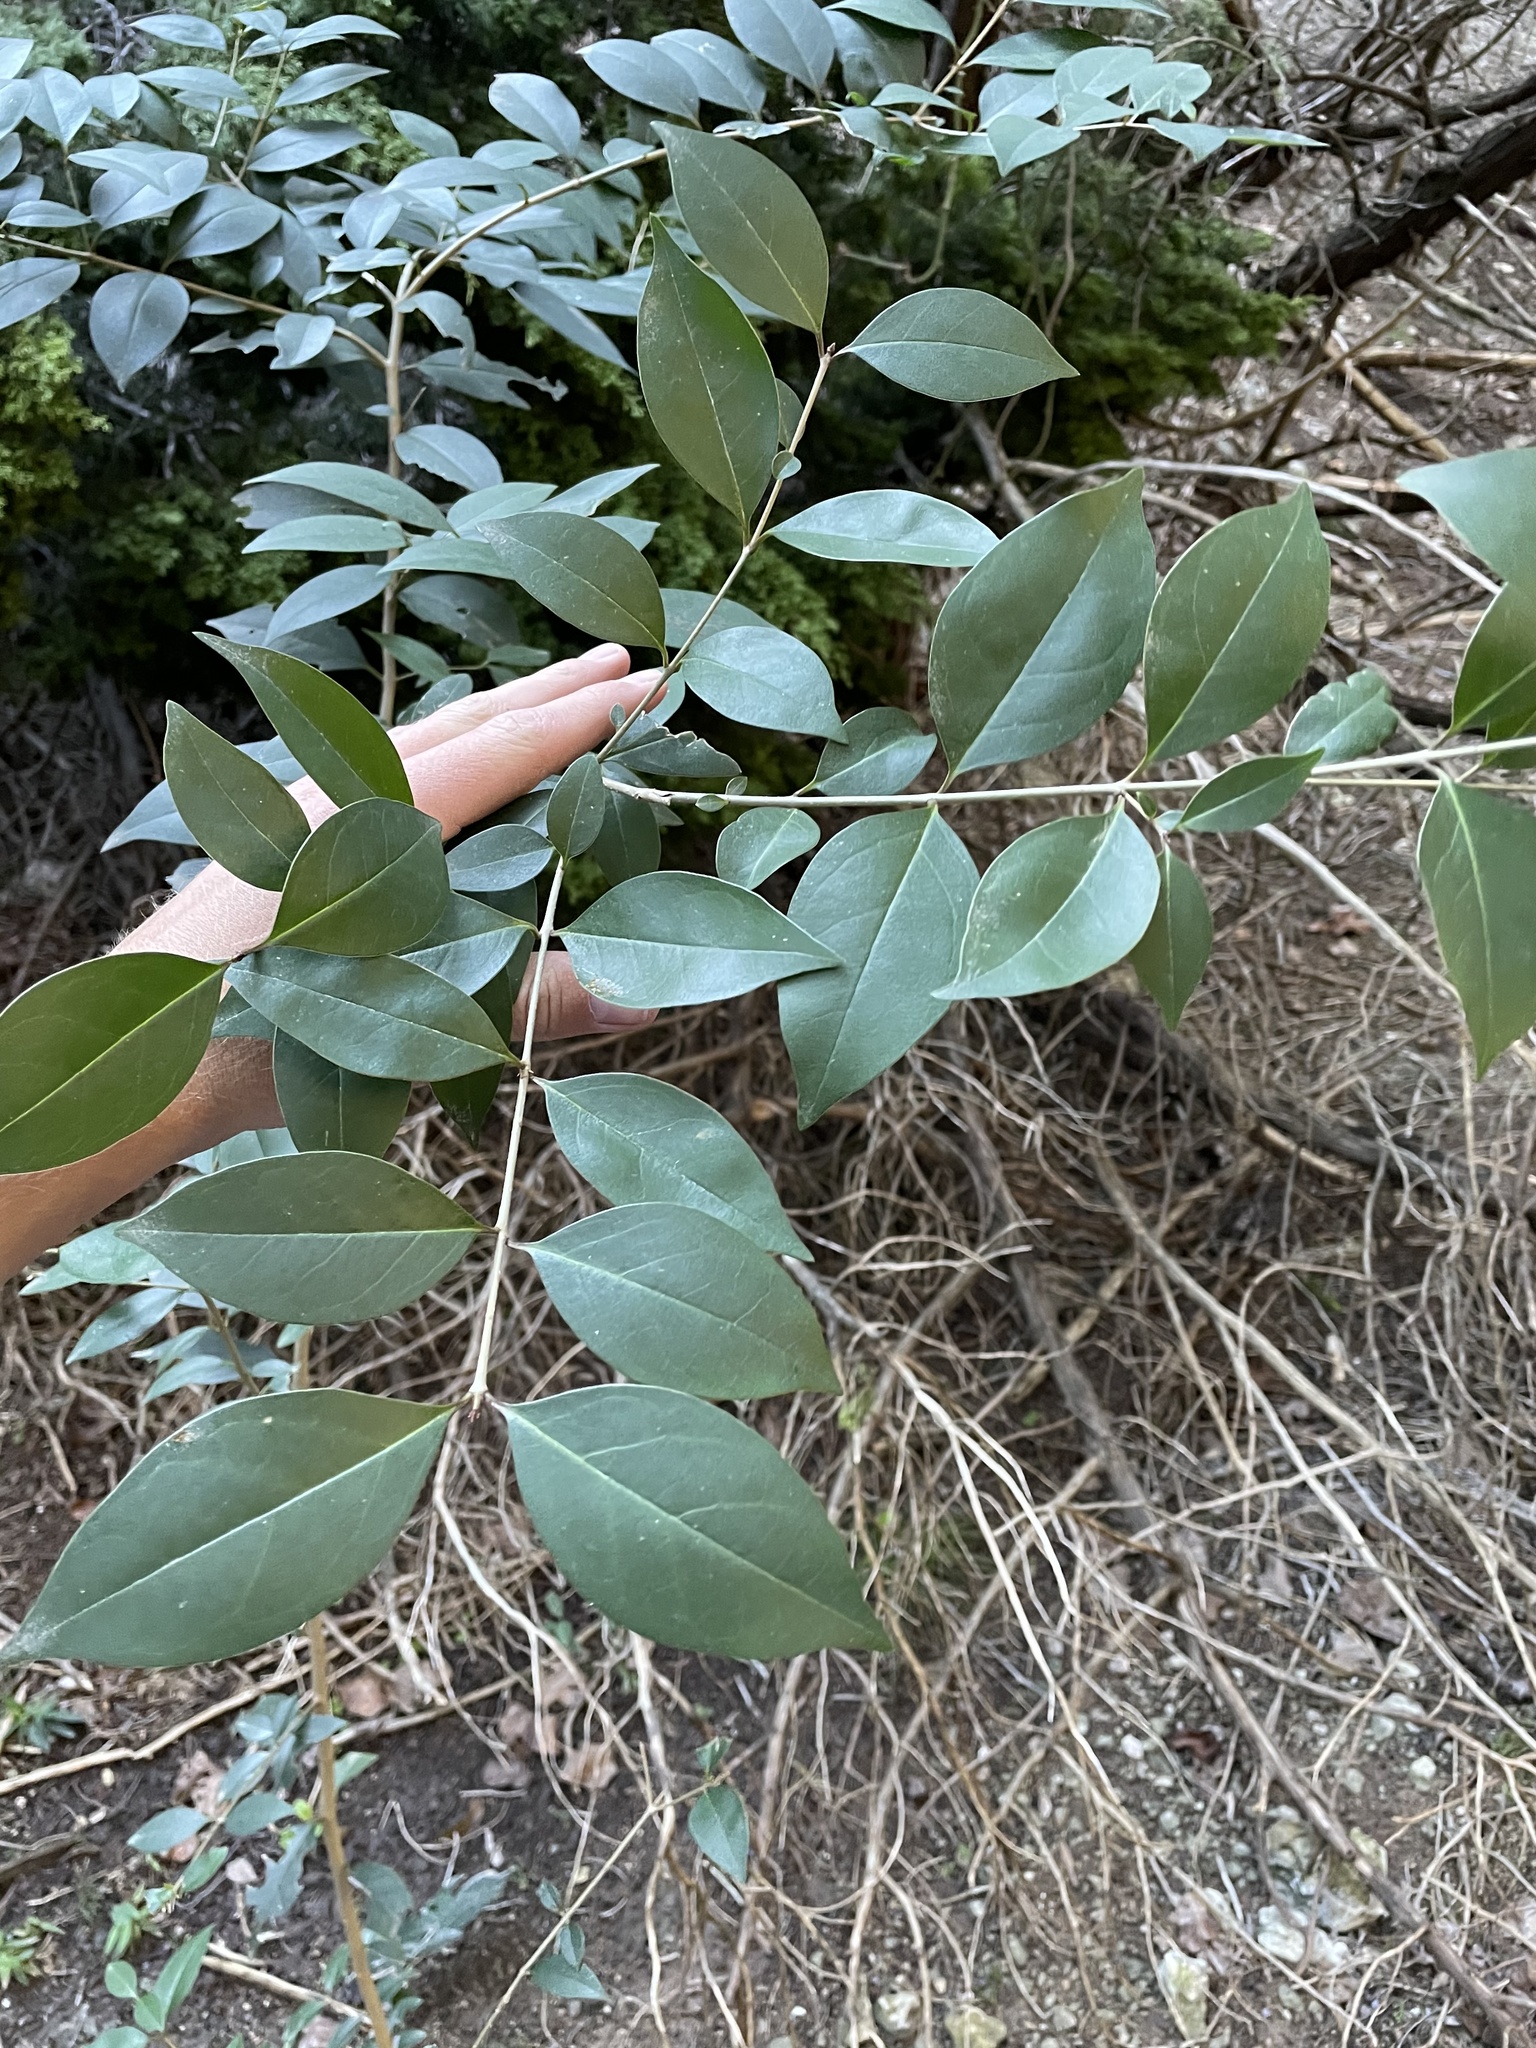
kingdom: Plantae
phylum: Tracheophyta
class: Magnoliopsida
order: Lamiales
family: Oleaceae
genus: Ligustrum
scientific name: Ligustrum lucidum
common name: Glossy privet
